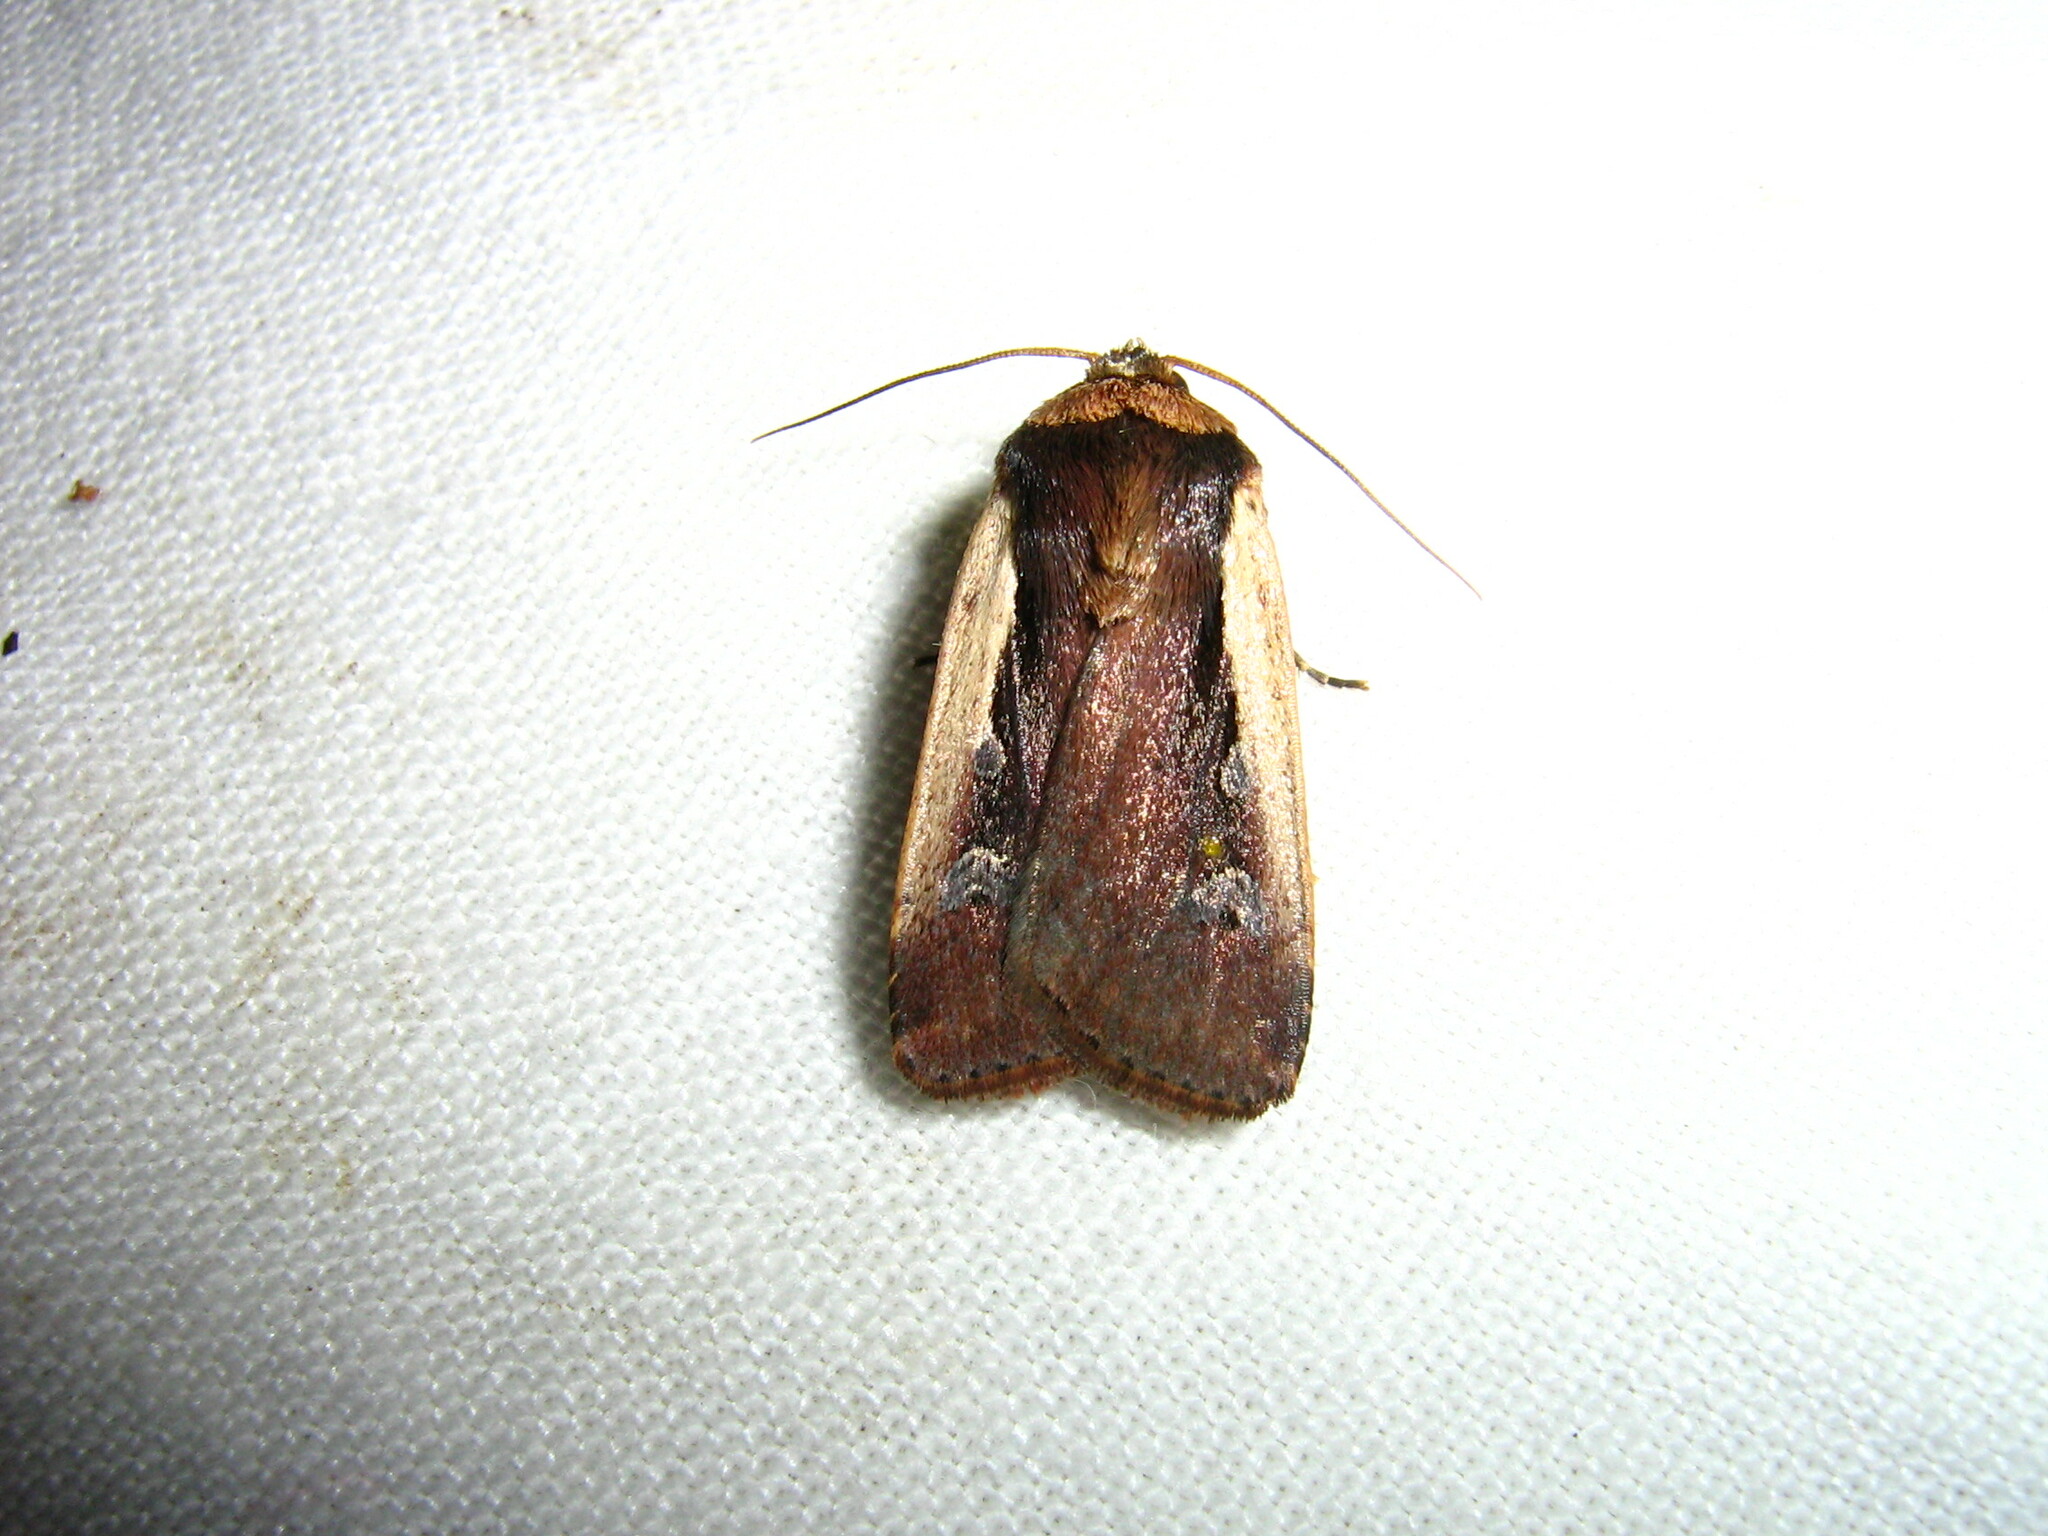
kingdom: Animalia
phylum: Arthropoda
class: Insecta
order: Lepidoptera
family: Noctuidae
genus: Ochropleura
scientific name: Ochropleura plecta
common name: Flame shoulder
